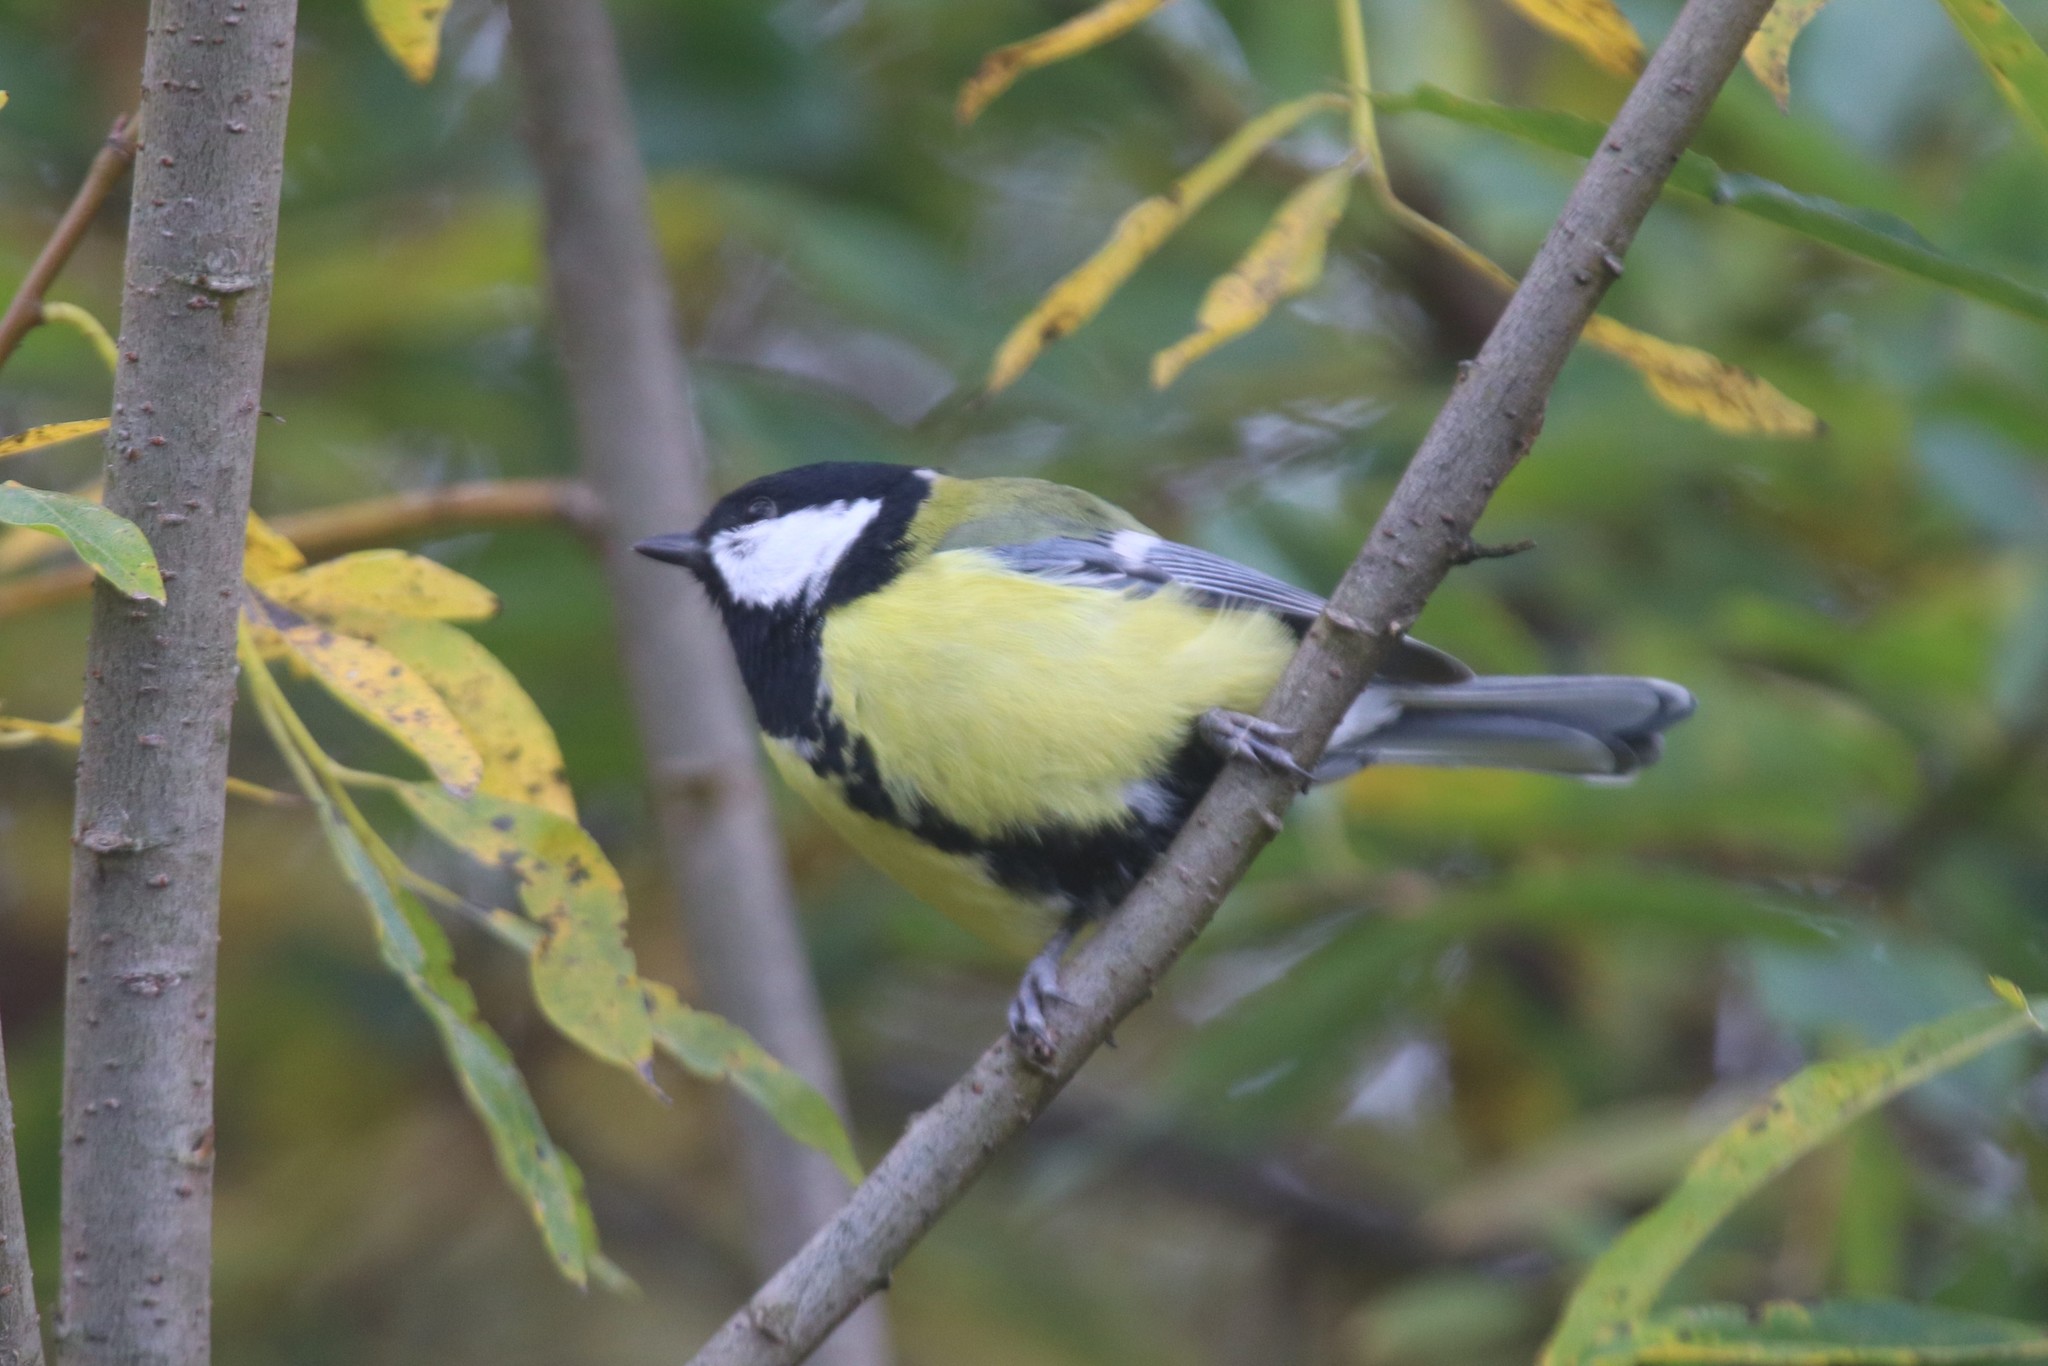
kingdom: Animalia
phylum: Chordata
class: Aves
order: Passeriformes
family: Paridae
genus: Parus
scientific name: Parus major
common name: Great tit
